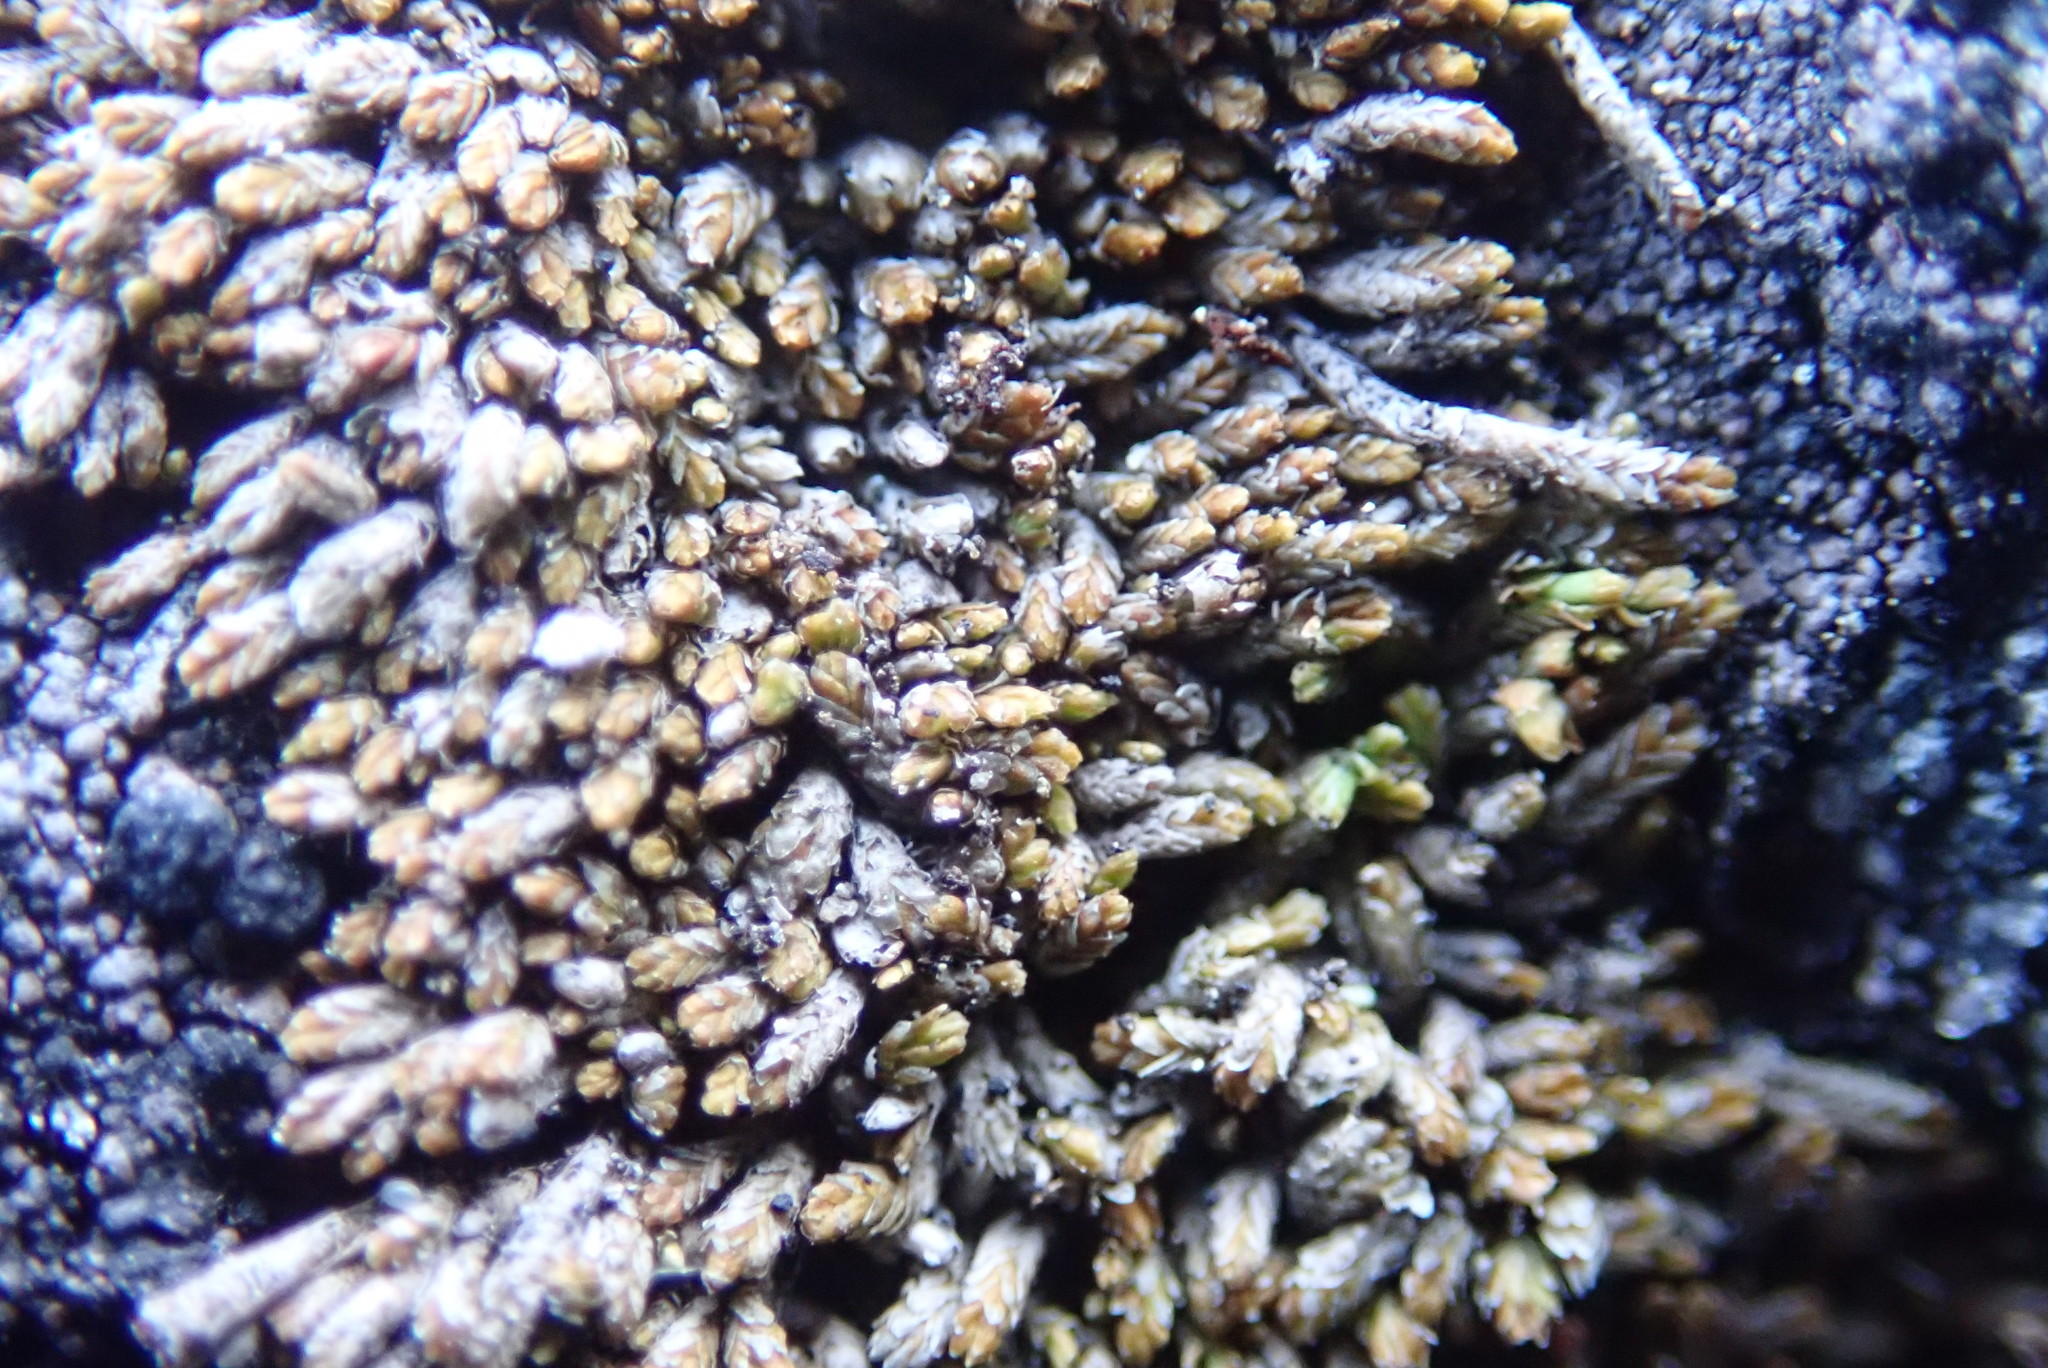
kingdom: Plantae
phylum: Marchantiophyta
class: Jungermanniopsida
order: Jungermanniales
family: Gymnomitriaceae
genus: Gymnomitrion
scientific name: Gymnomitrion obtusum
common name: White frostwort
